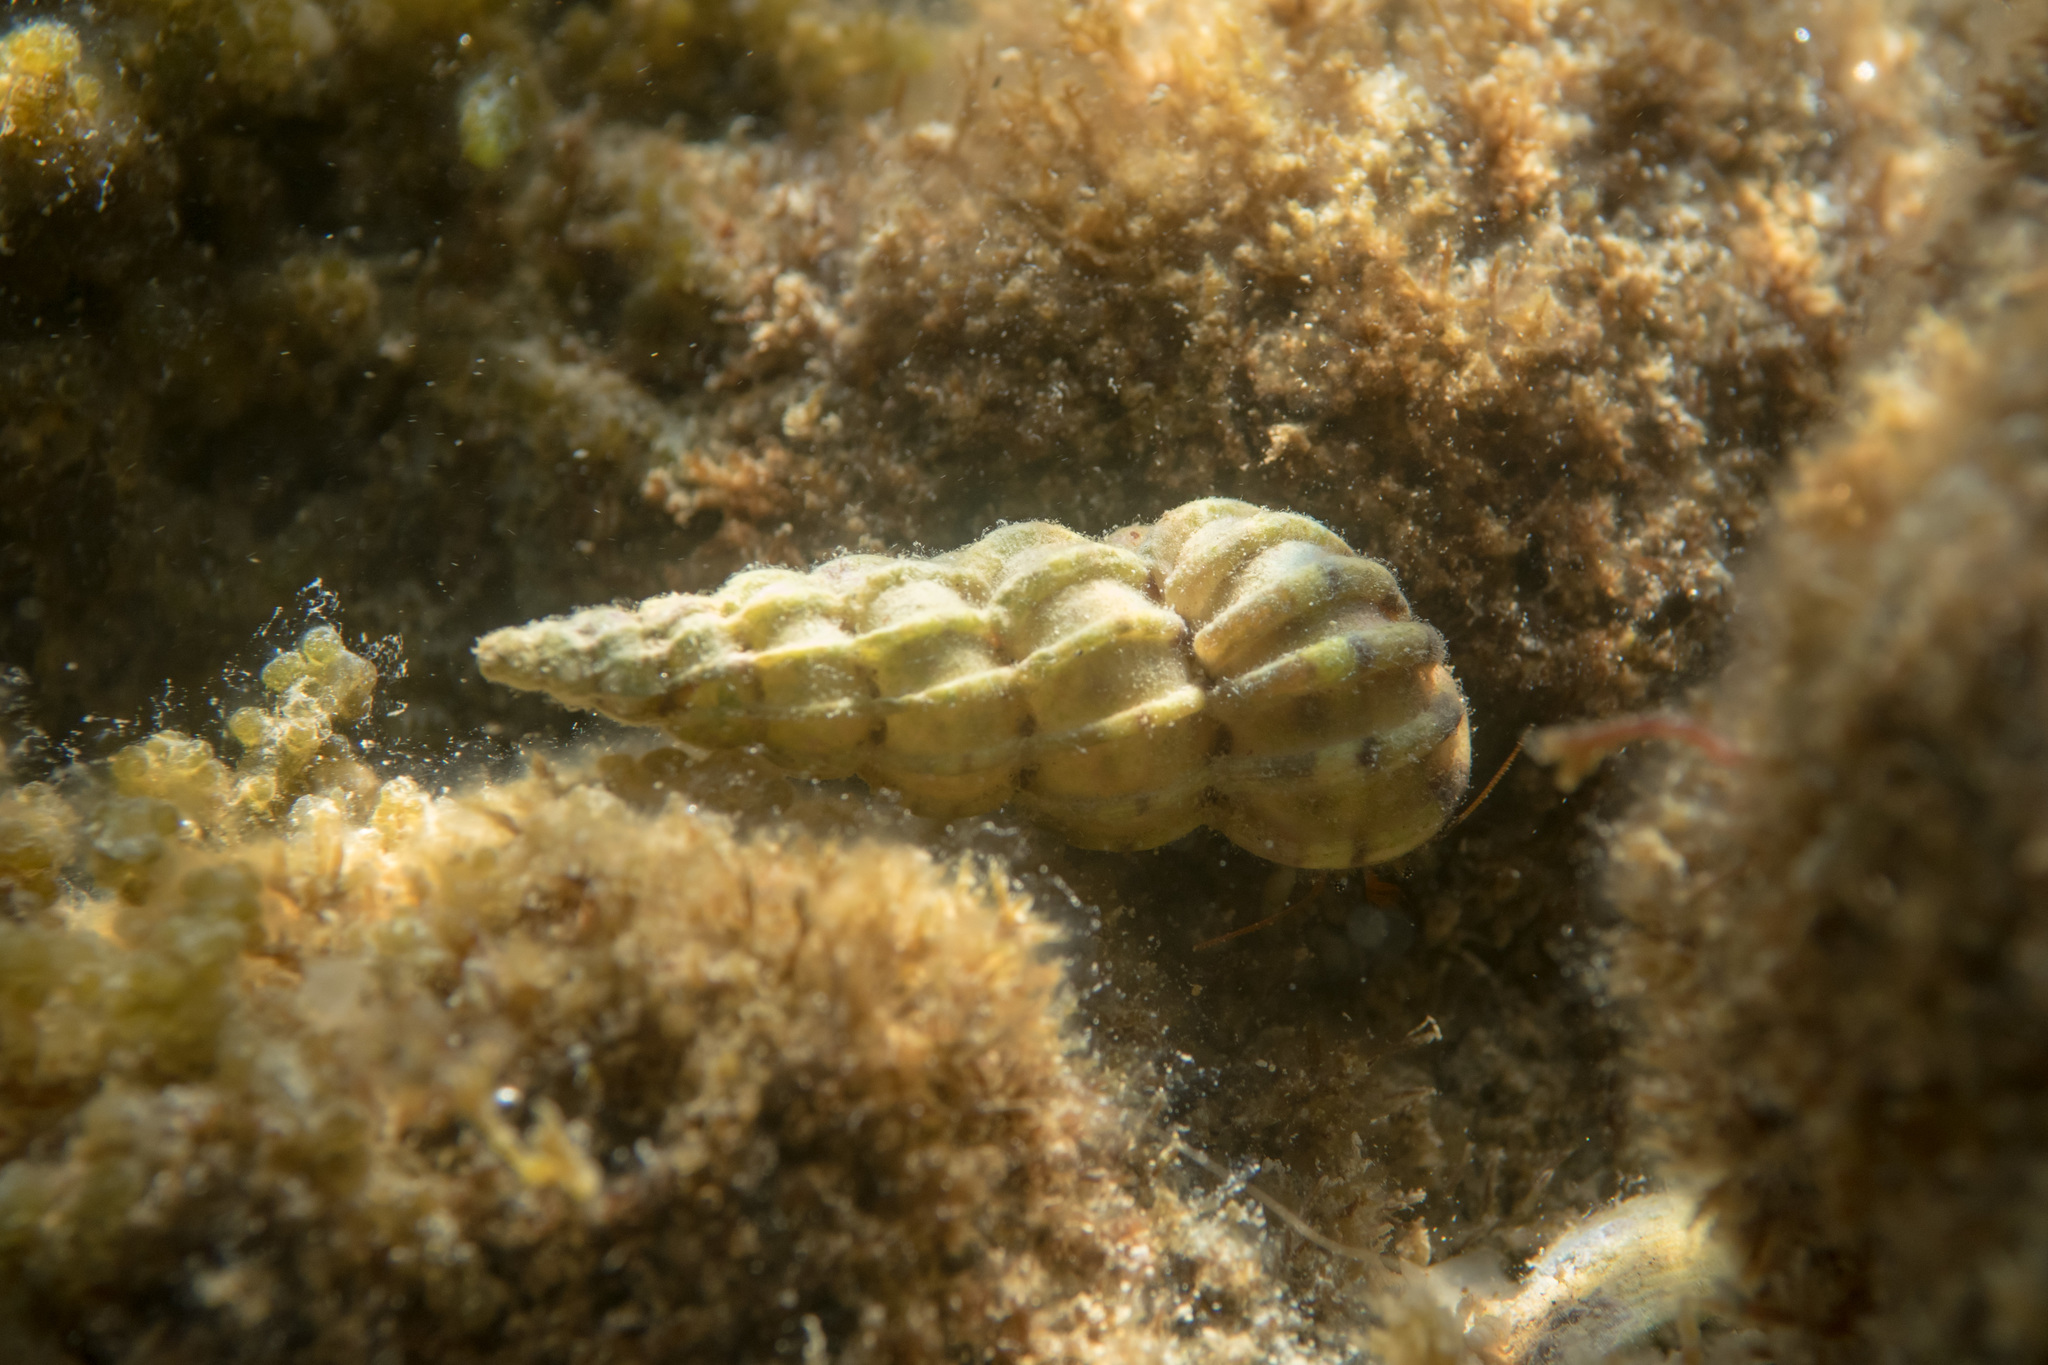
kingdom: Animalia
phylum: Mollusca
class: Gastropoda
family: Epitoniidae
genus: Epitonium
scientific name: Epitonium clathrus
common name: Common wentletrap
